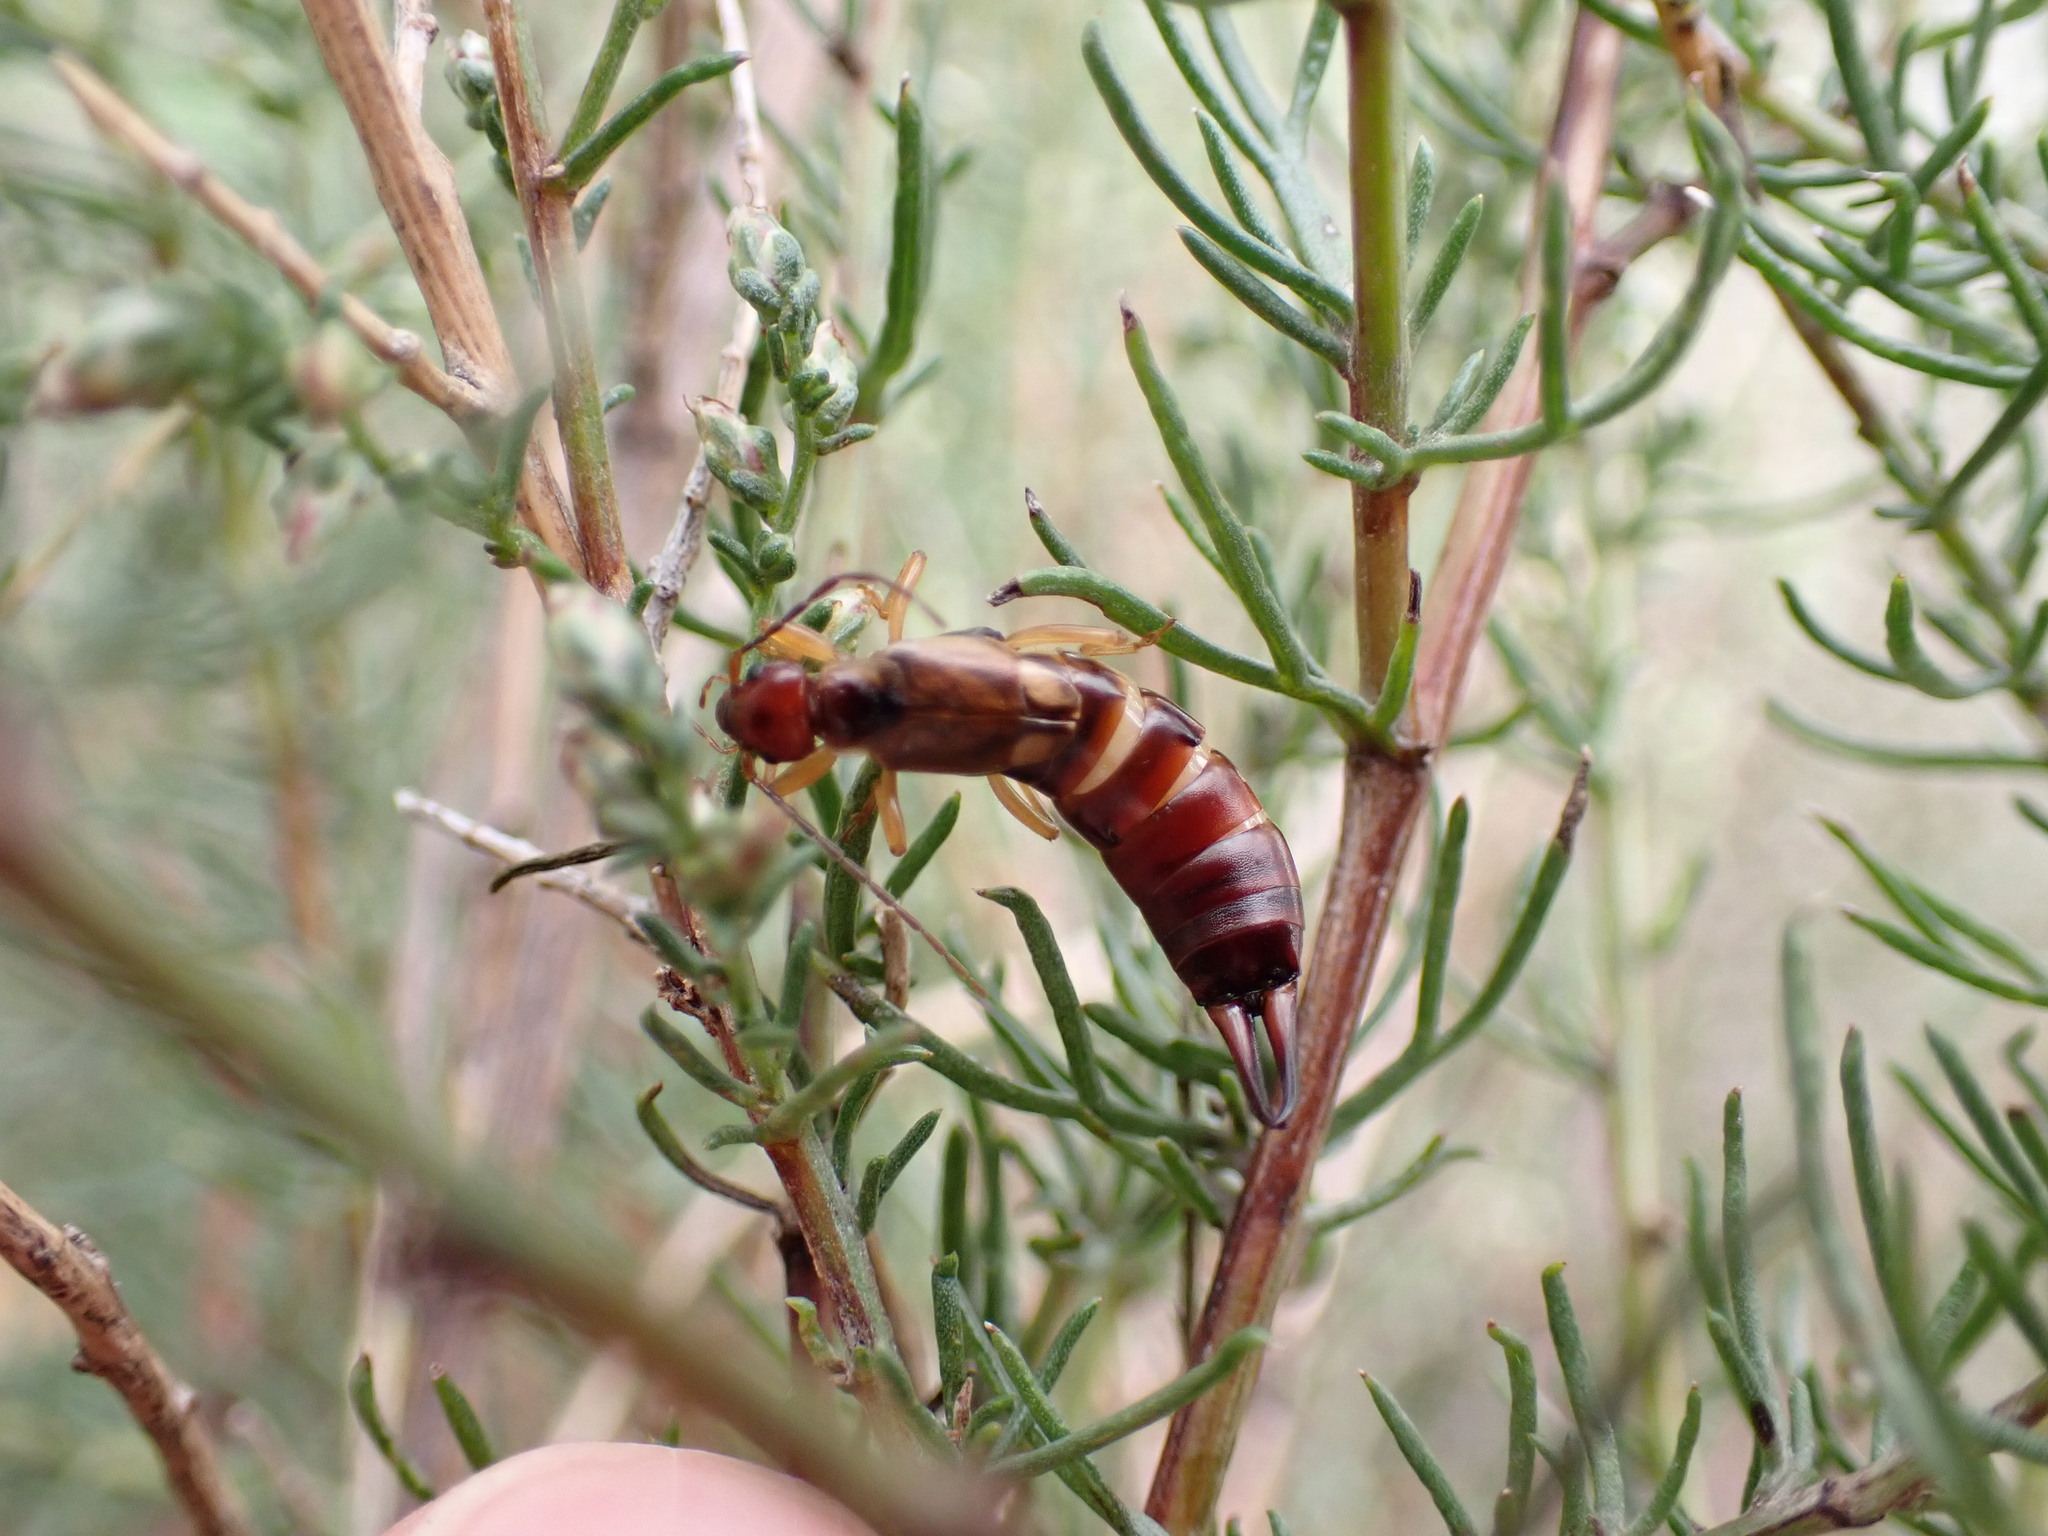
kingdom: Animalia
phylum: Arthropoda
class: Insecta
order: Dermaptera
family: Forficulidae
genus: Forficula
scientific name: Forficula
